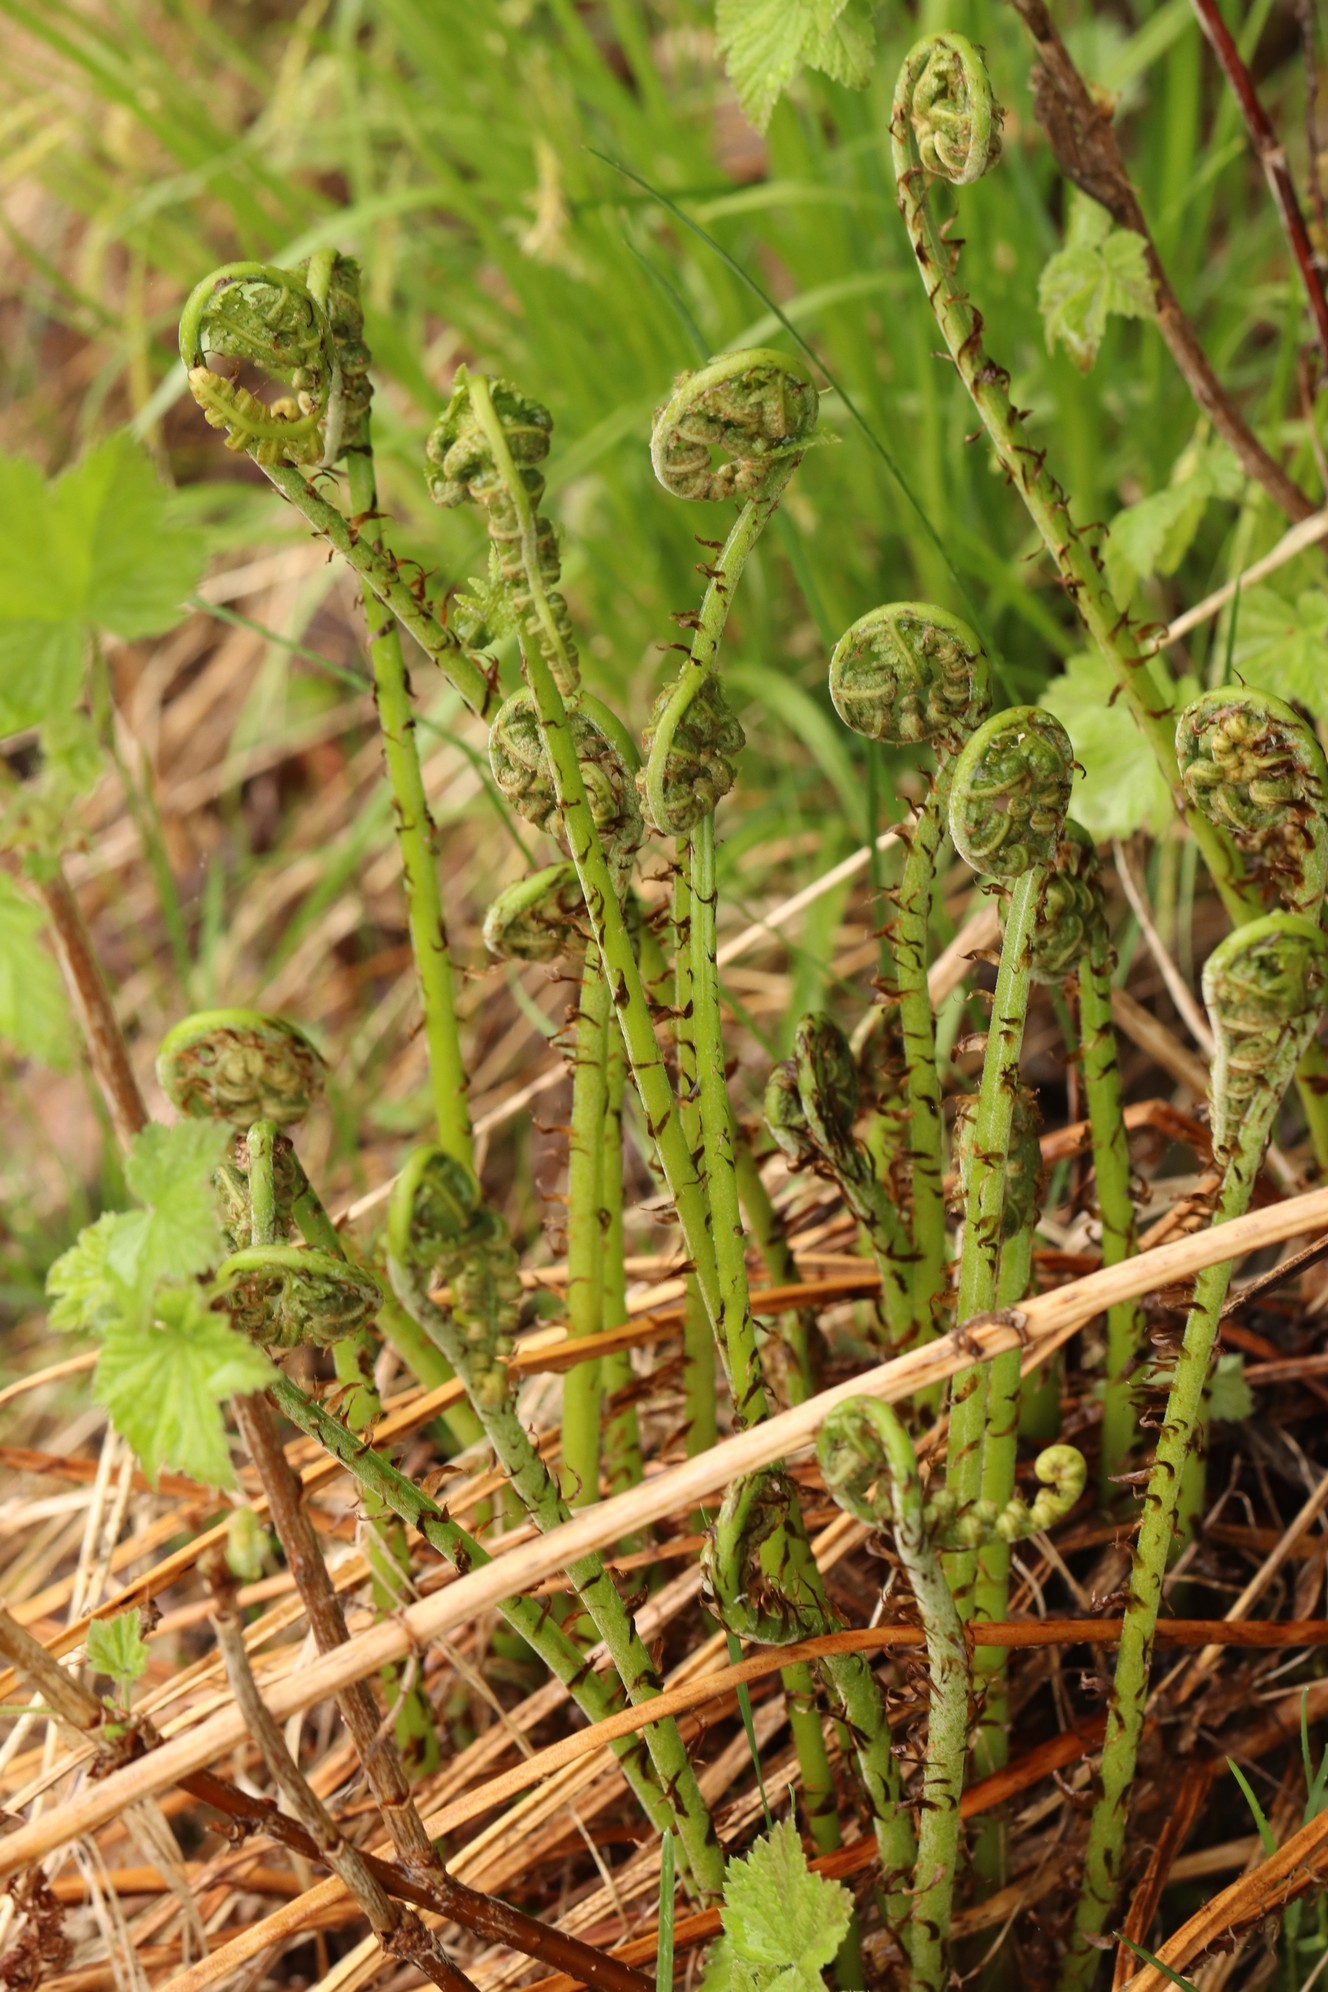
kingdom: Plantae
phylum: Tracheophyta
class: Polypodiopsida
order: Polypodiales
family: Athyriaceae
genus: Athyrium
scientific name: Athyrium filix-femina
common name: Lady fern
